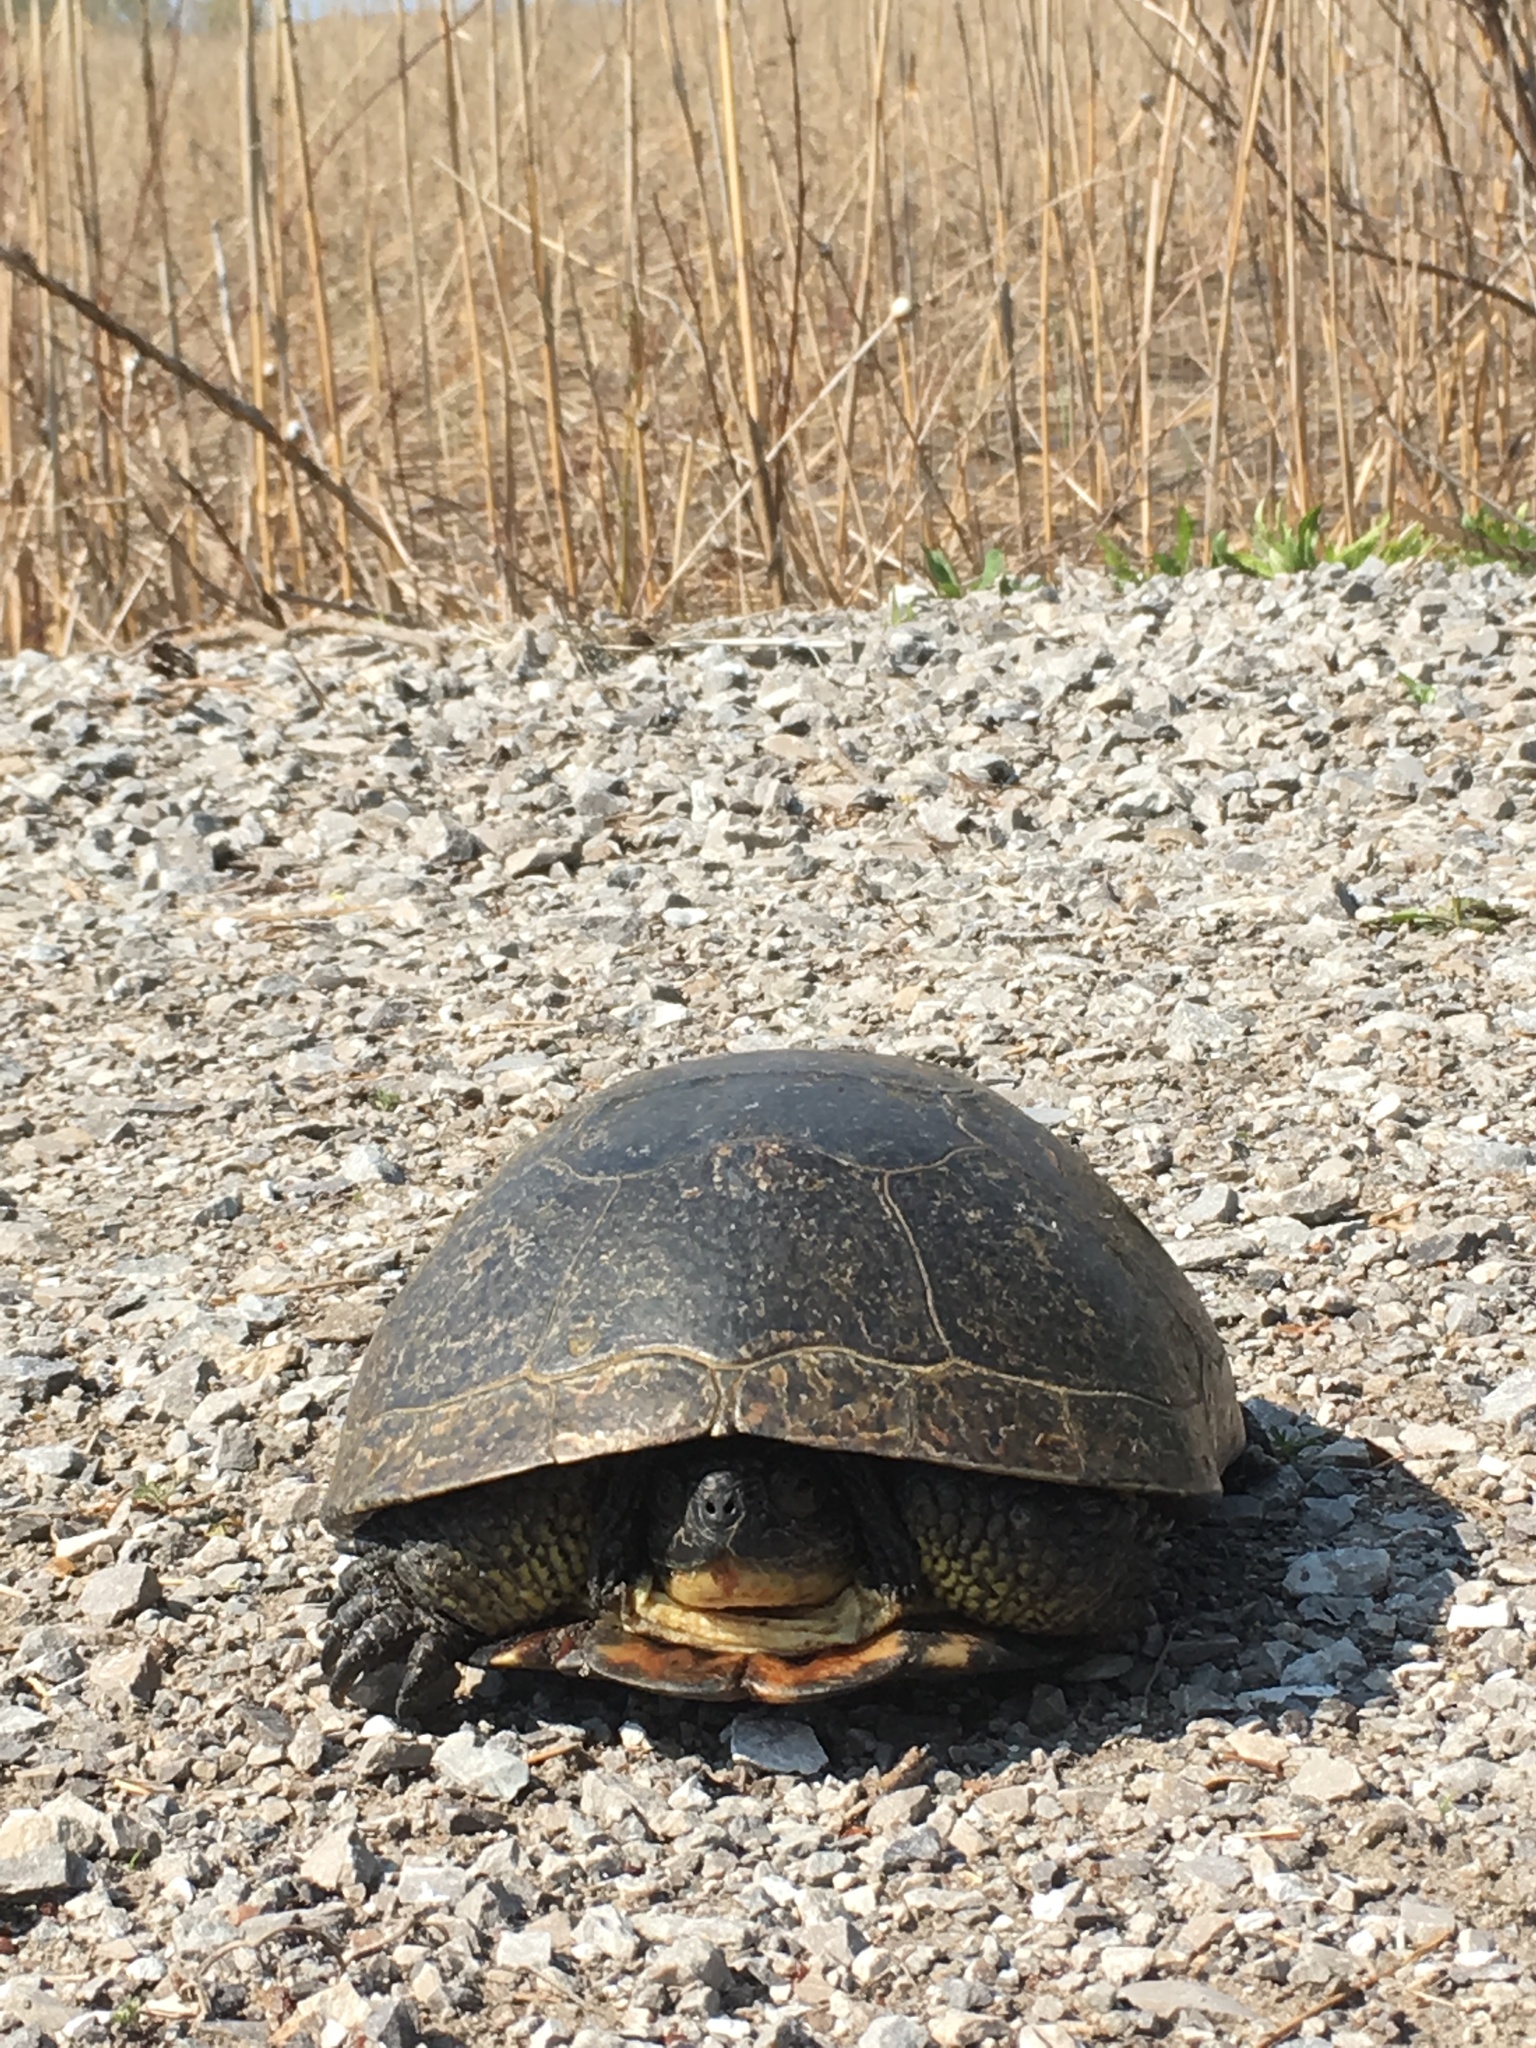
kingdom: Animalia
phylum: Chordata
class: Testudines
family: Emydidae
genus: Emys
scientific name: Emys blandingii
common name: Blanding's turtle
